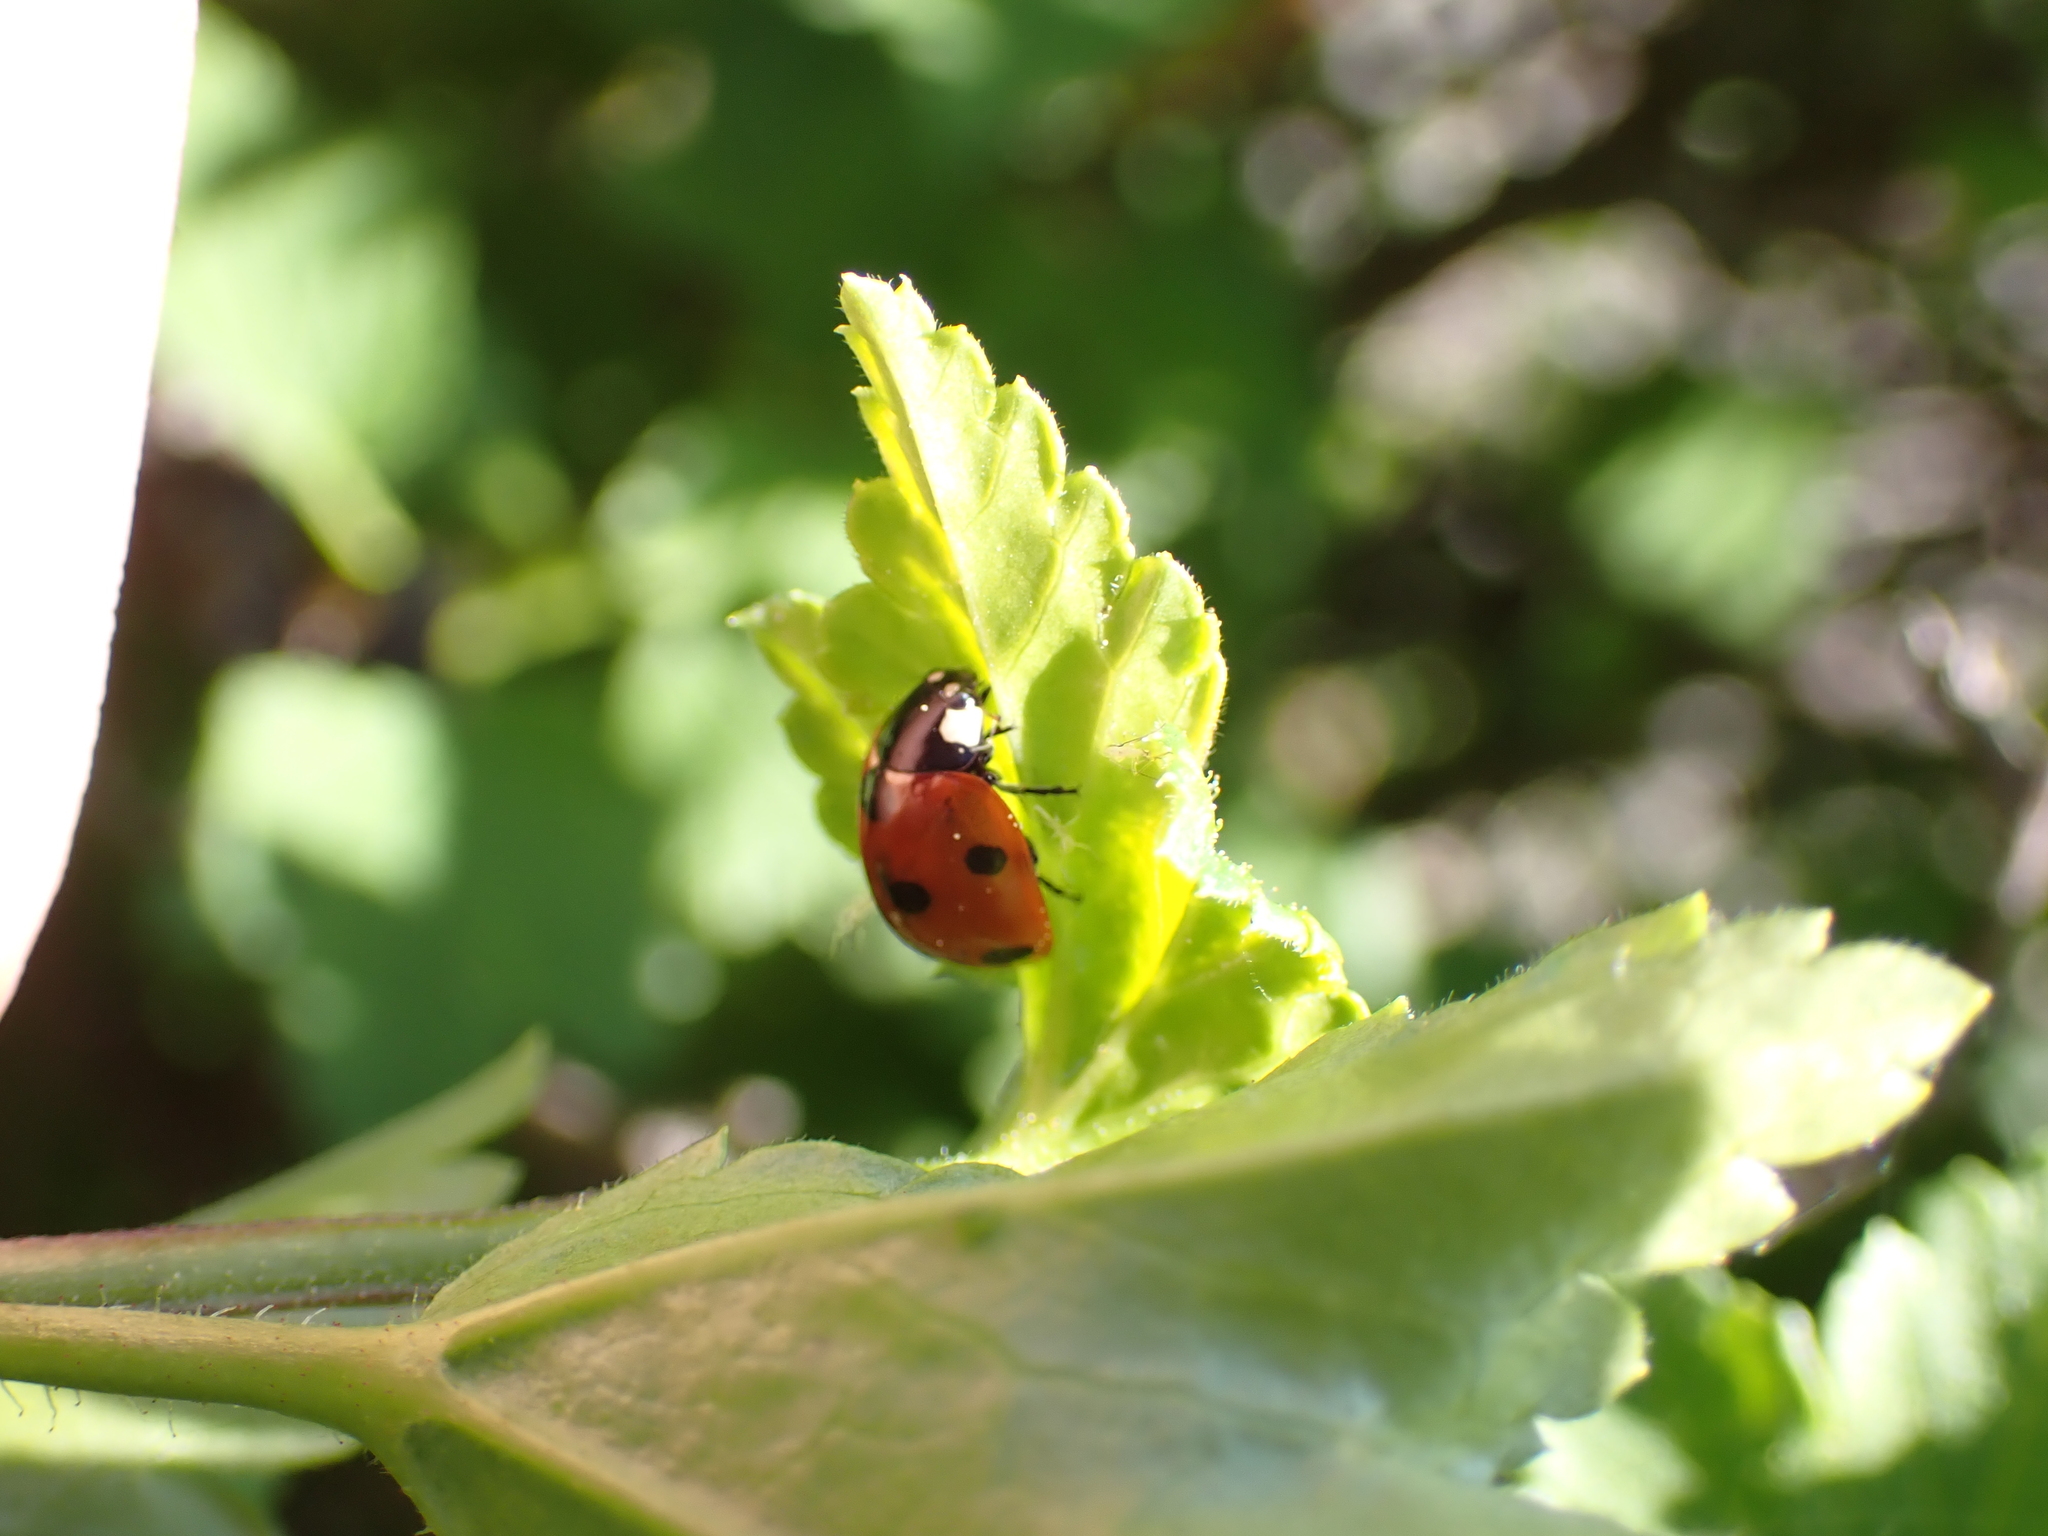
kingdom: Animalia
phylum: Arthropoda
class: Insecta
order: Coleoptera
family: Coccinellidae
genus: Coccinella
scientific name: Coccinella septempunctata
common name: Sevenspotted lady beetle
